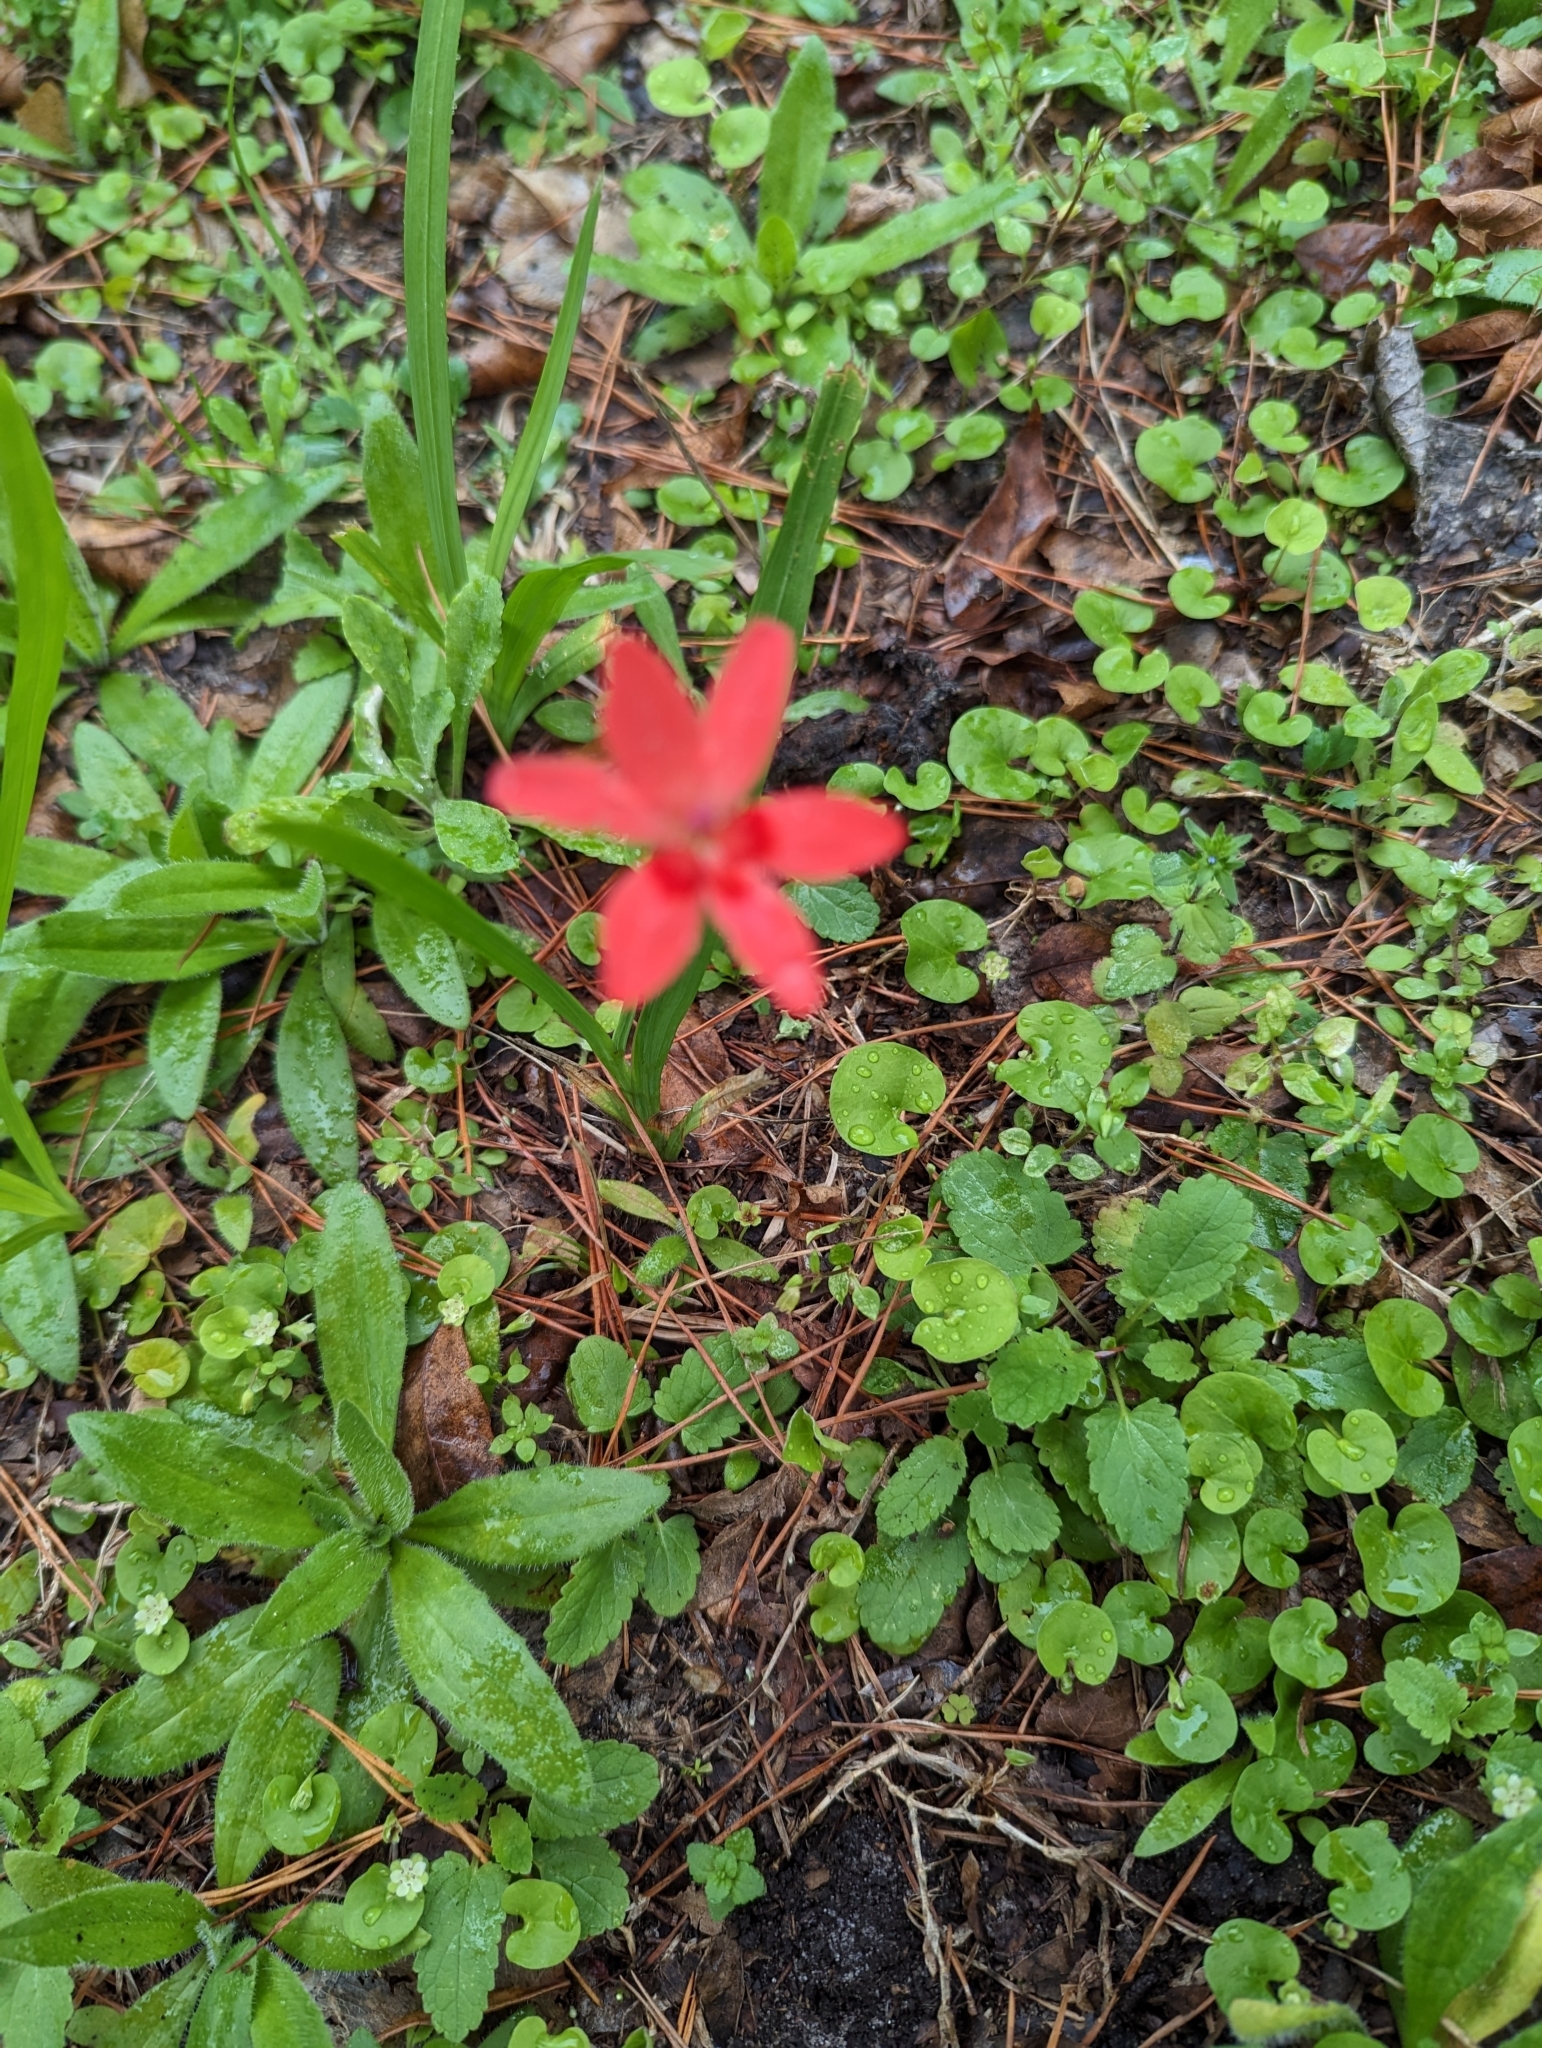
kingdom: Plantae
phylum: Tracheophyta
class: Liliopsida
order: Asparagales
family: Iridaceae
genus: Freesia
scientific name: Freesia laxa
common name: False freesia
